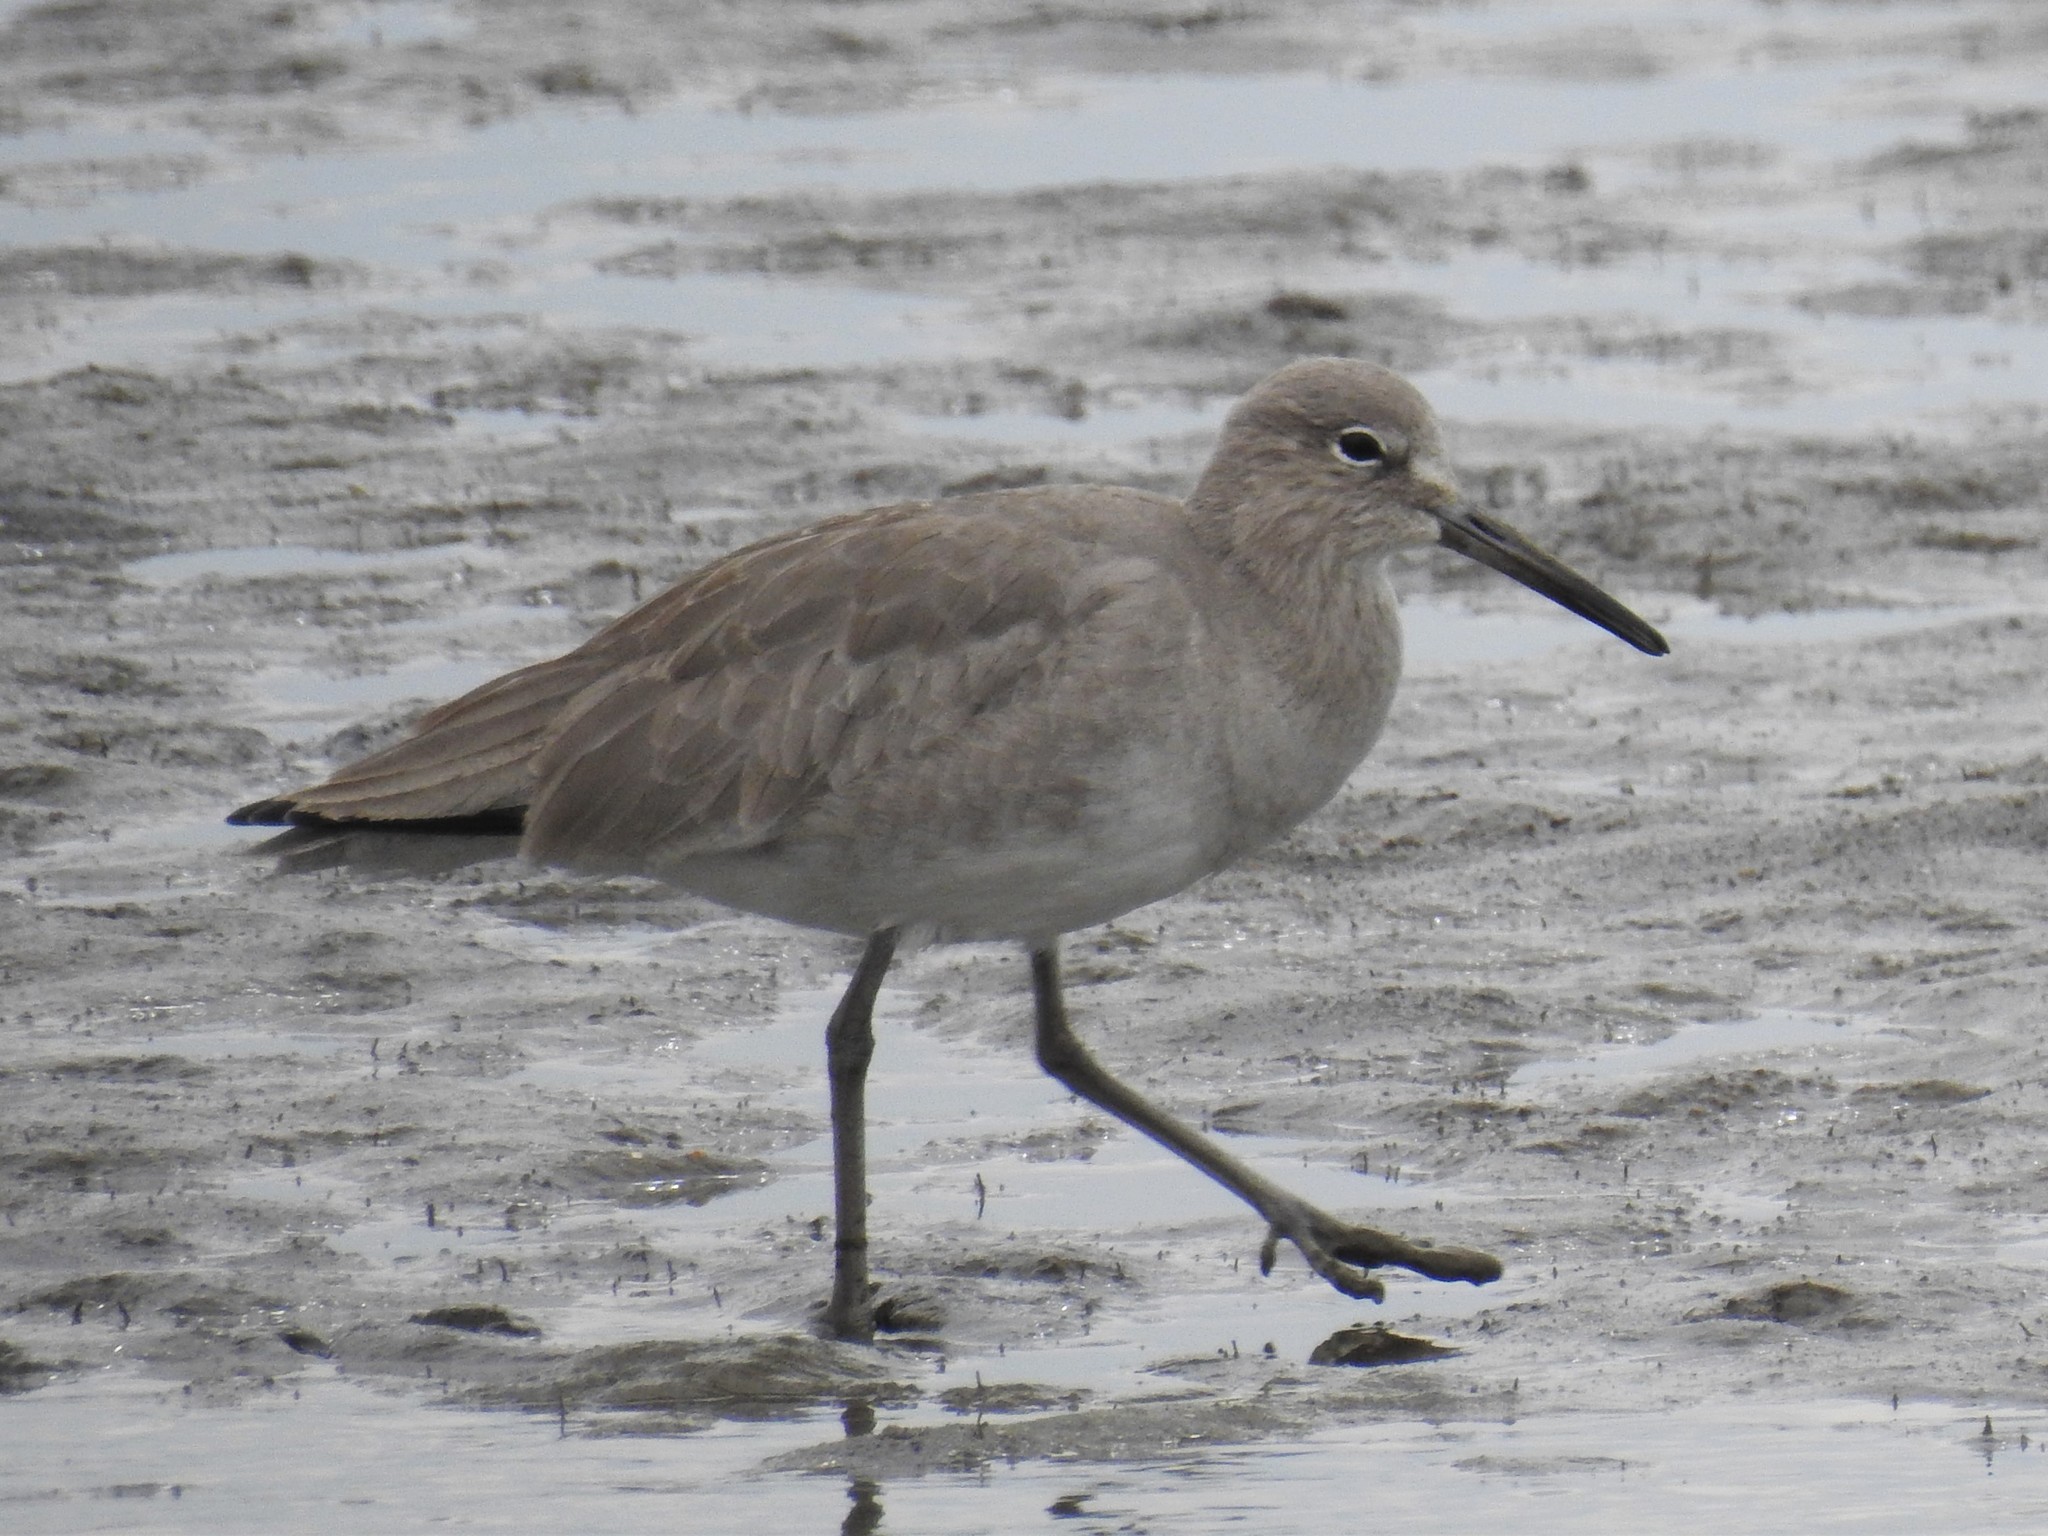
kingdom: Animalia
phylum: Chordata
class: Aves
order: Charadriiformes
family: Scolopacidae
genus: Tringa
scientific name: Tringa semipalmata
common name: Willet
